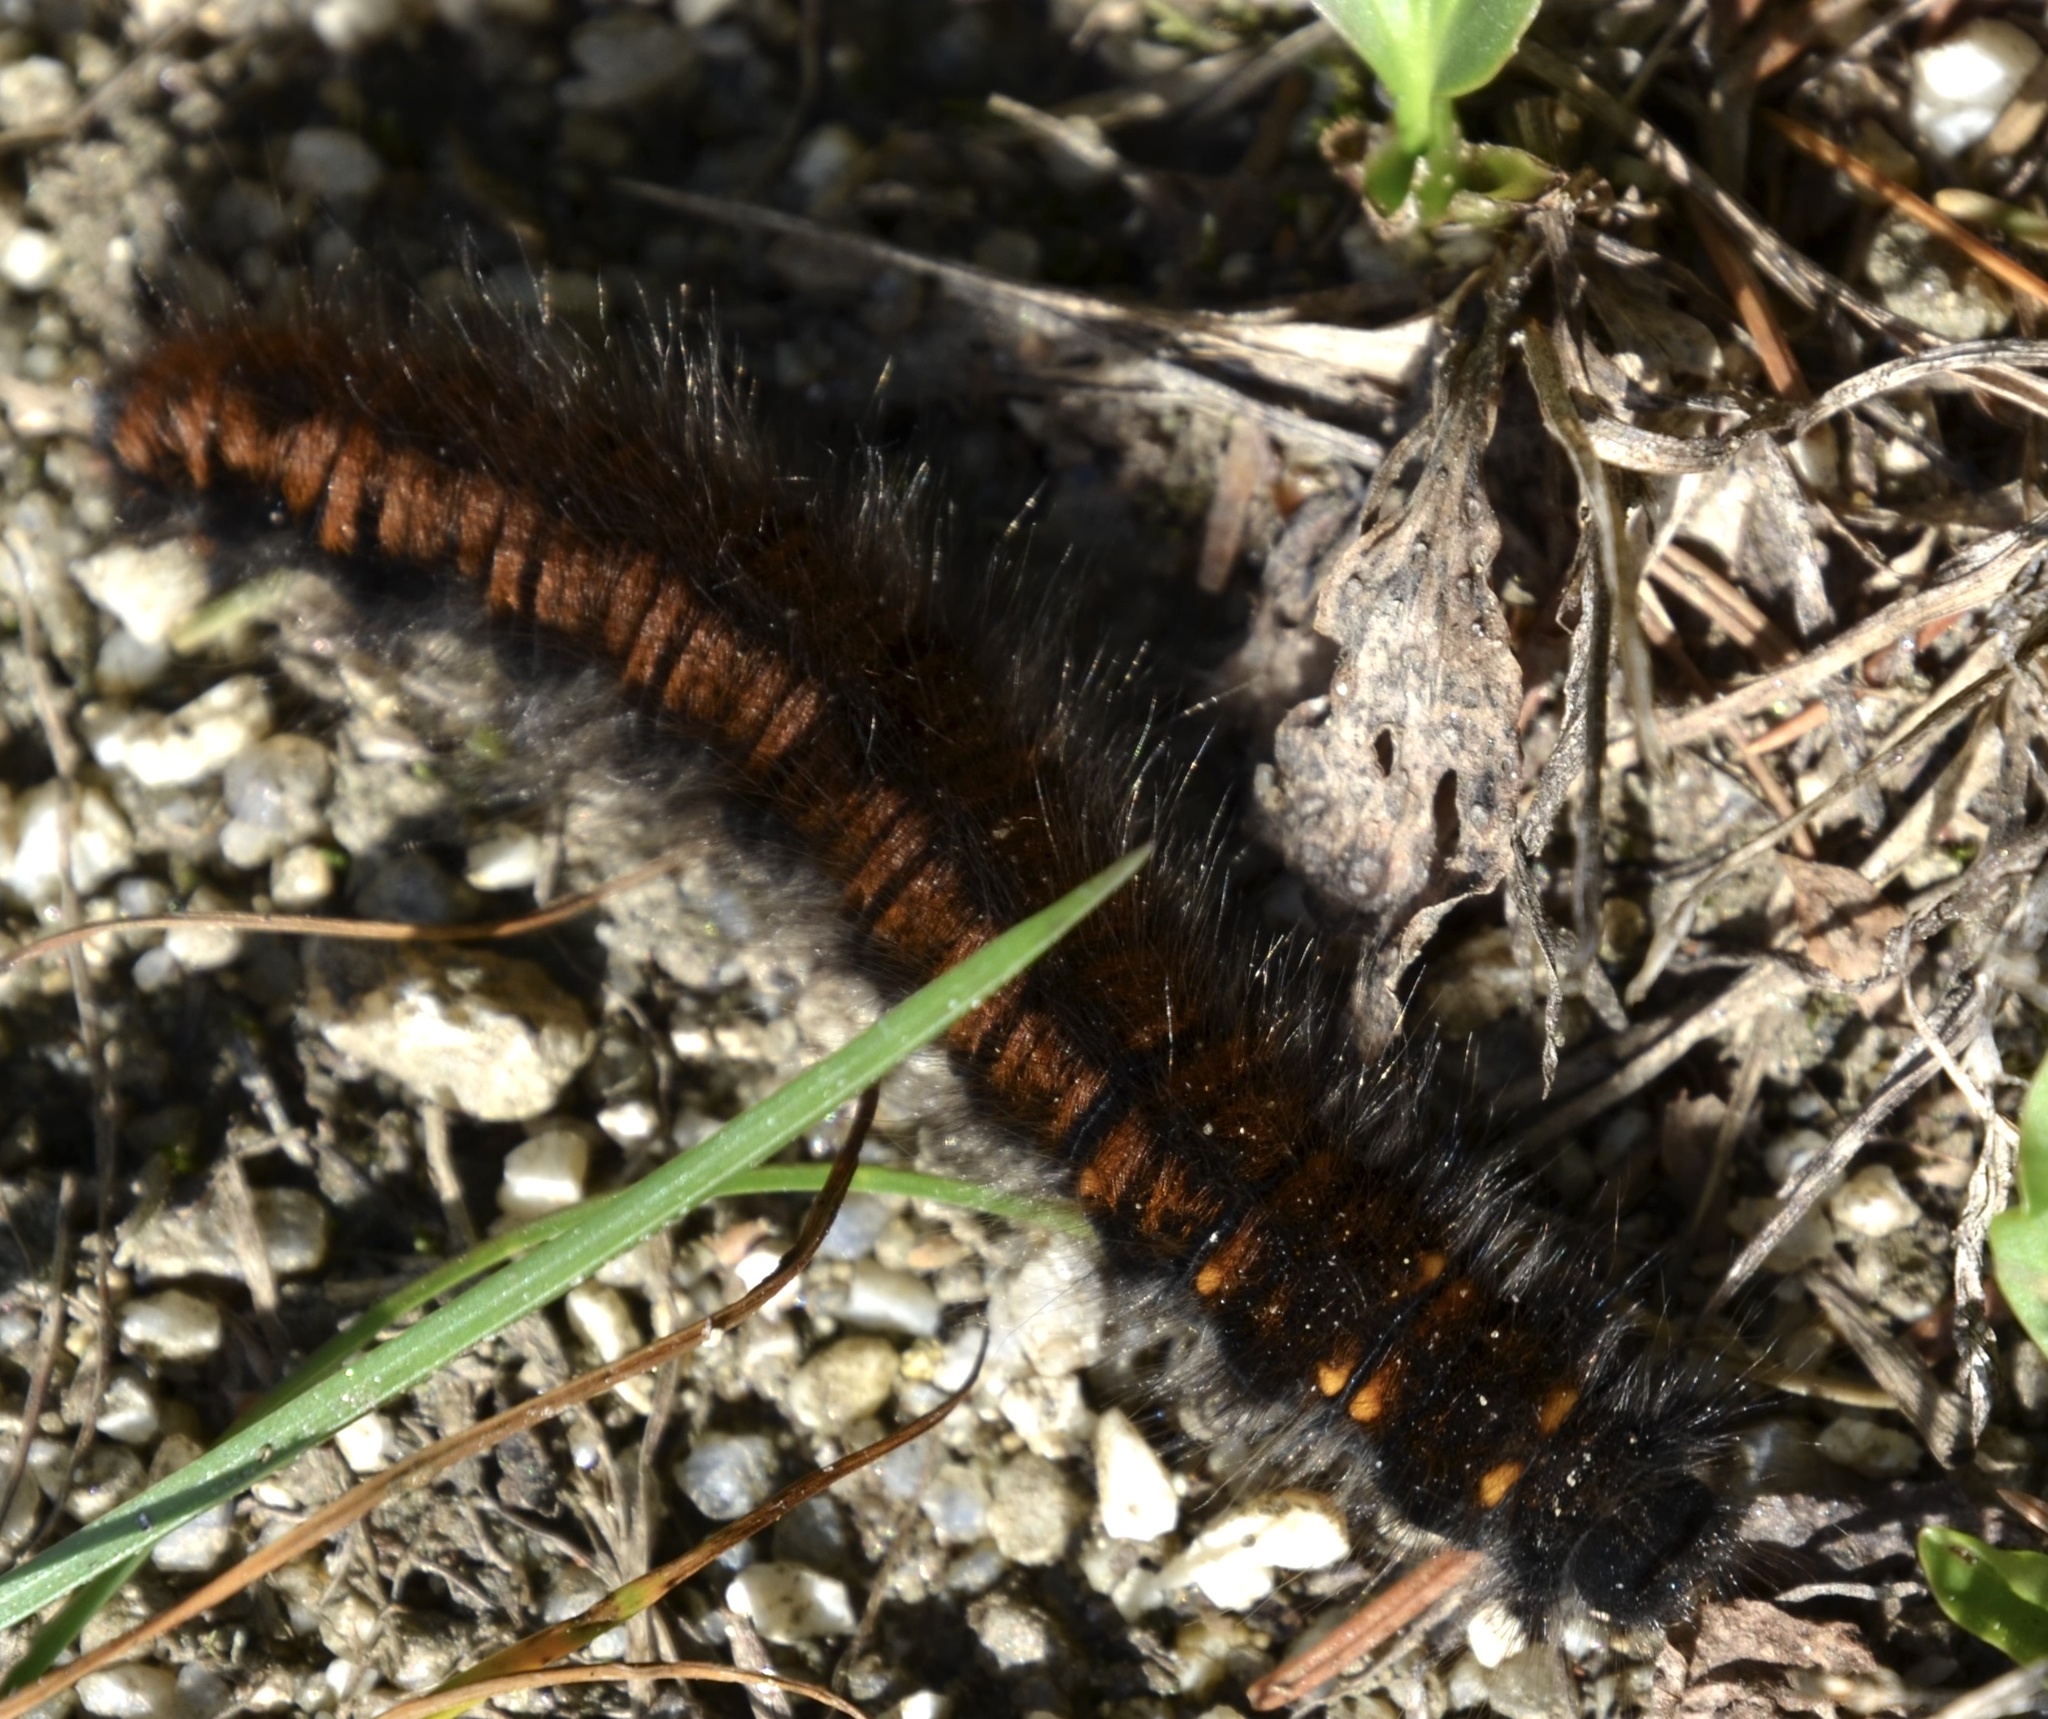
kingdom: Animalia
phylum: Arthropoda
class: Insecta
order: Lepidoptera
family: Lasiocampidae
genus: Macrothylacia
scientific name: Macrothylacia rubi
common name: Fox moth
